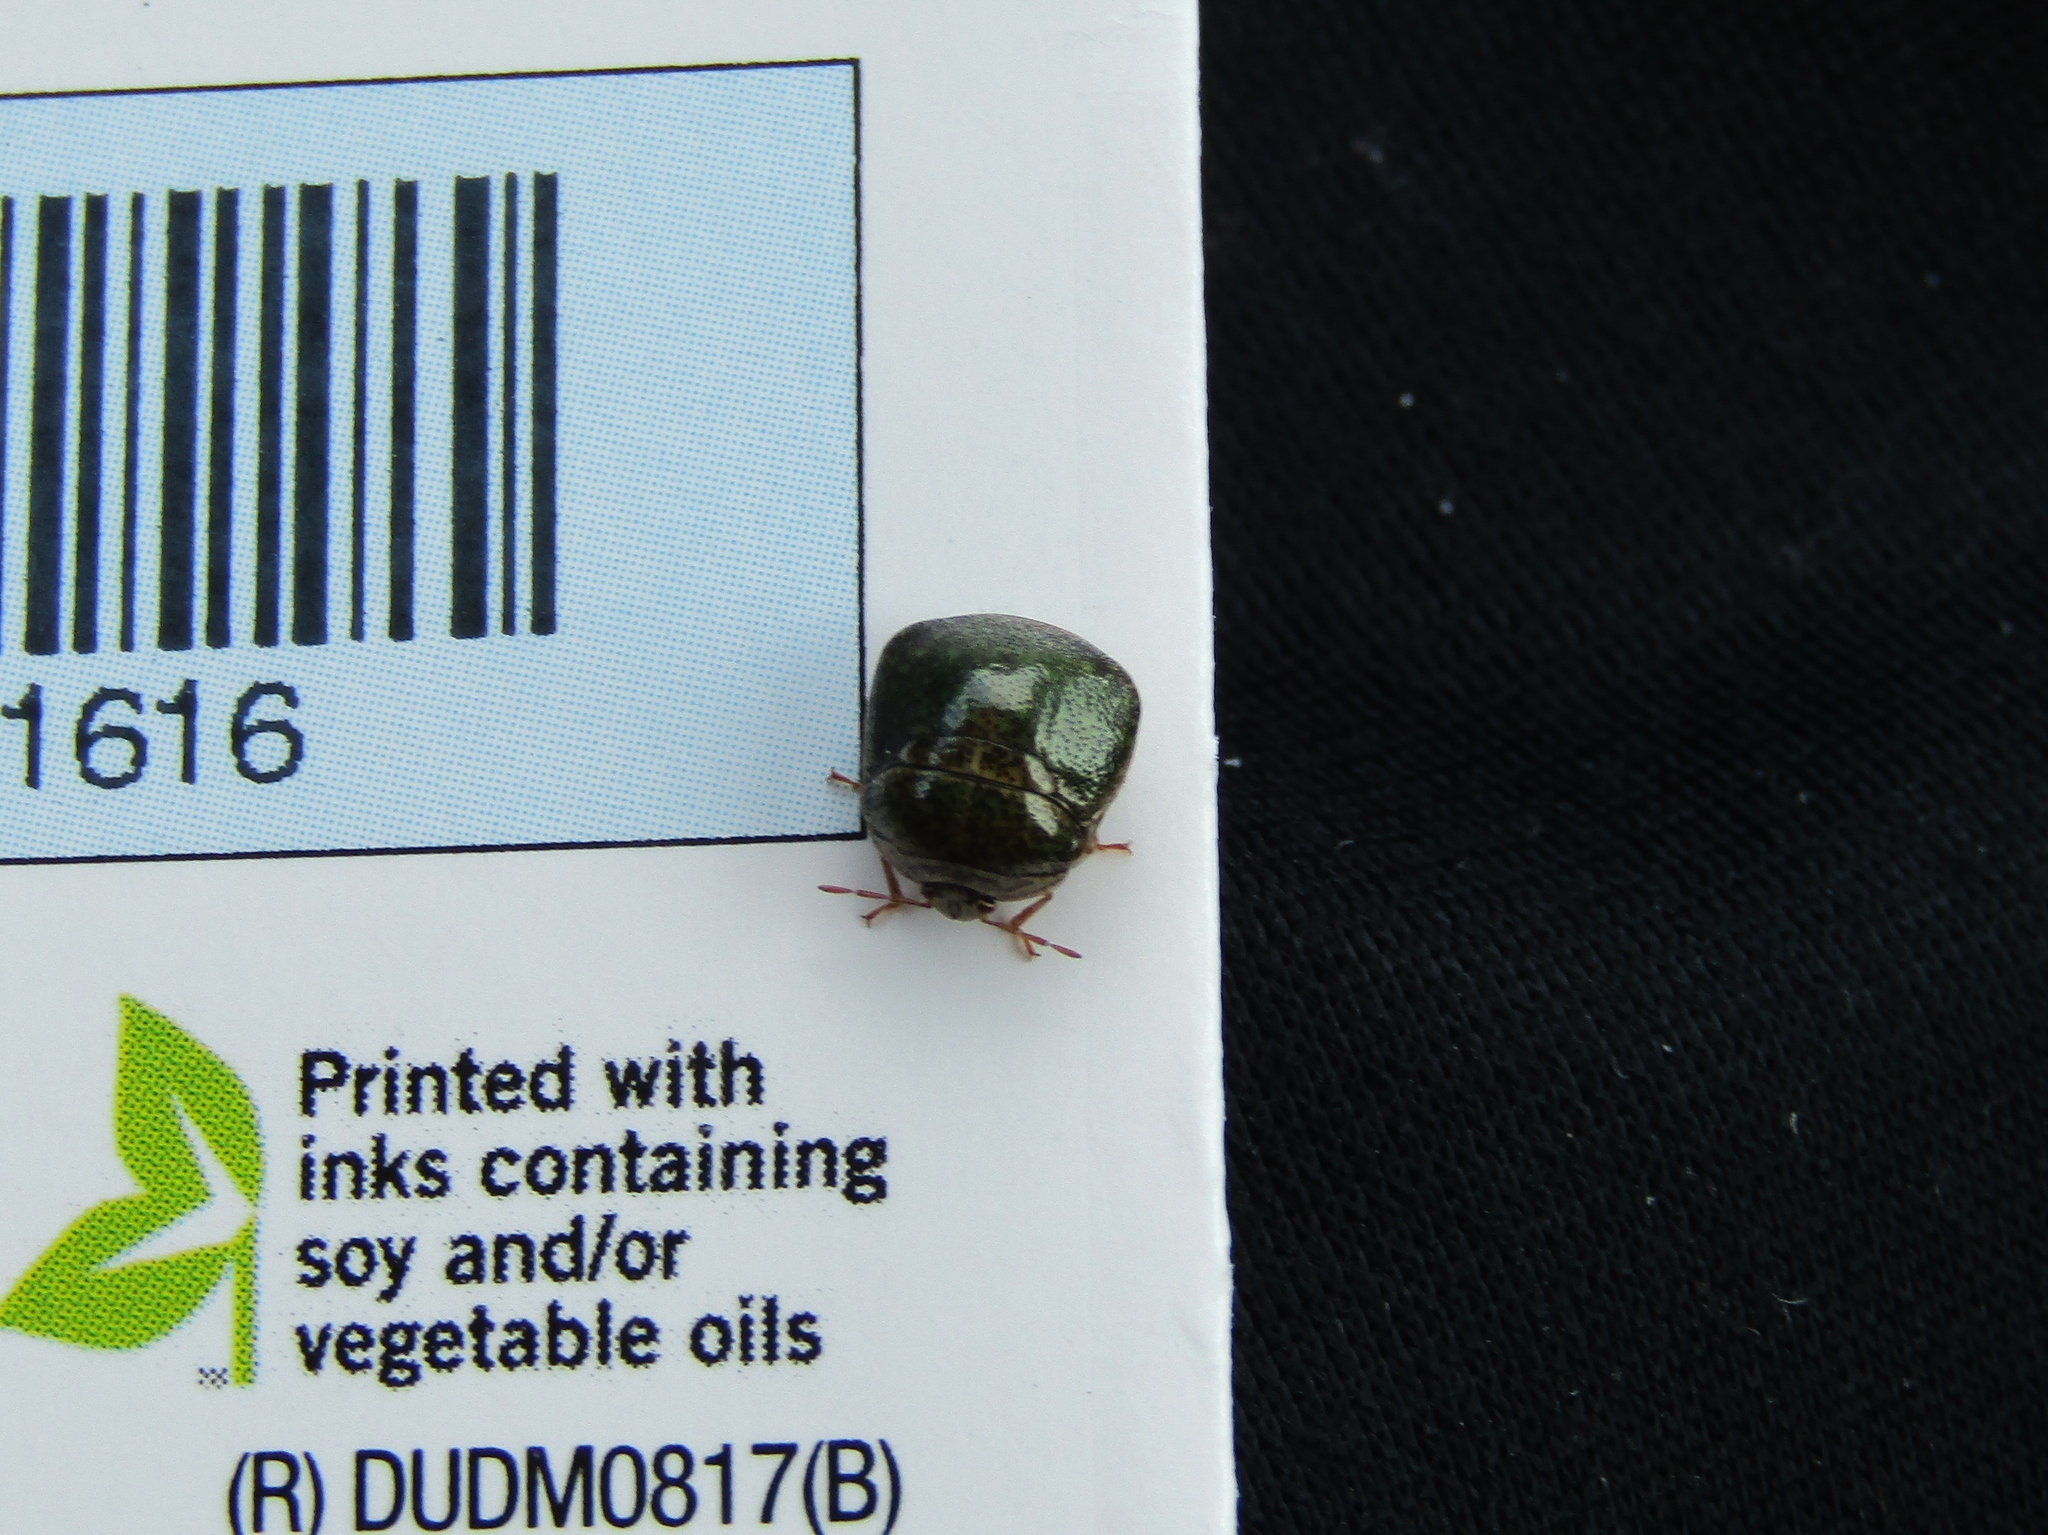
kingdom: Animalia
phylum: Arthropoda
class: Insecta
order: Hemiptera
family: Plataspidae
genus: Megacopta
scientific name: Megacopta cribraria
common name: Bean plataspid
